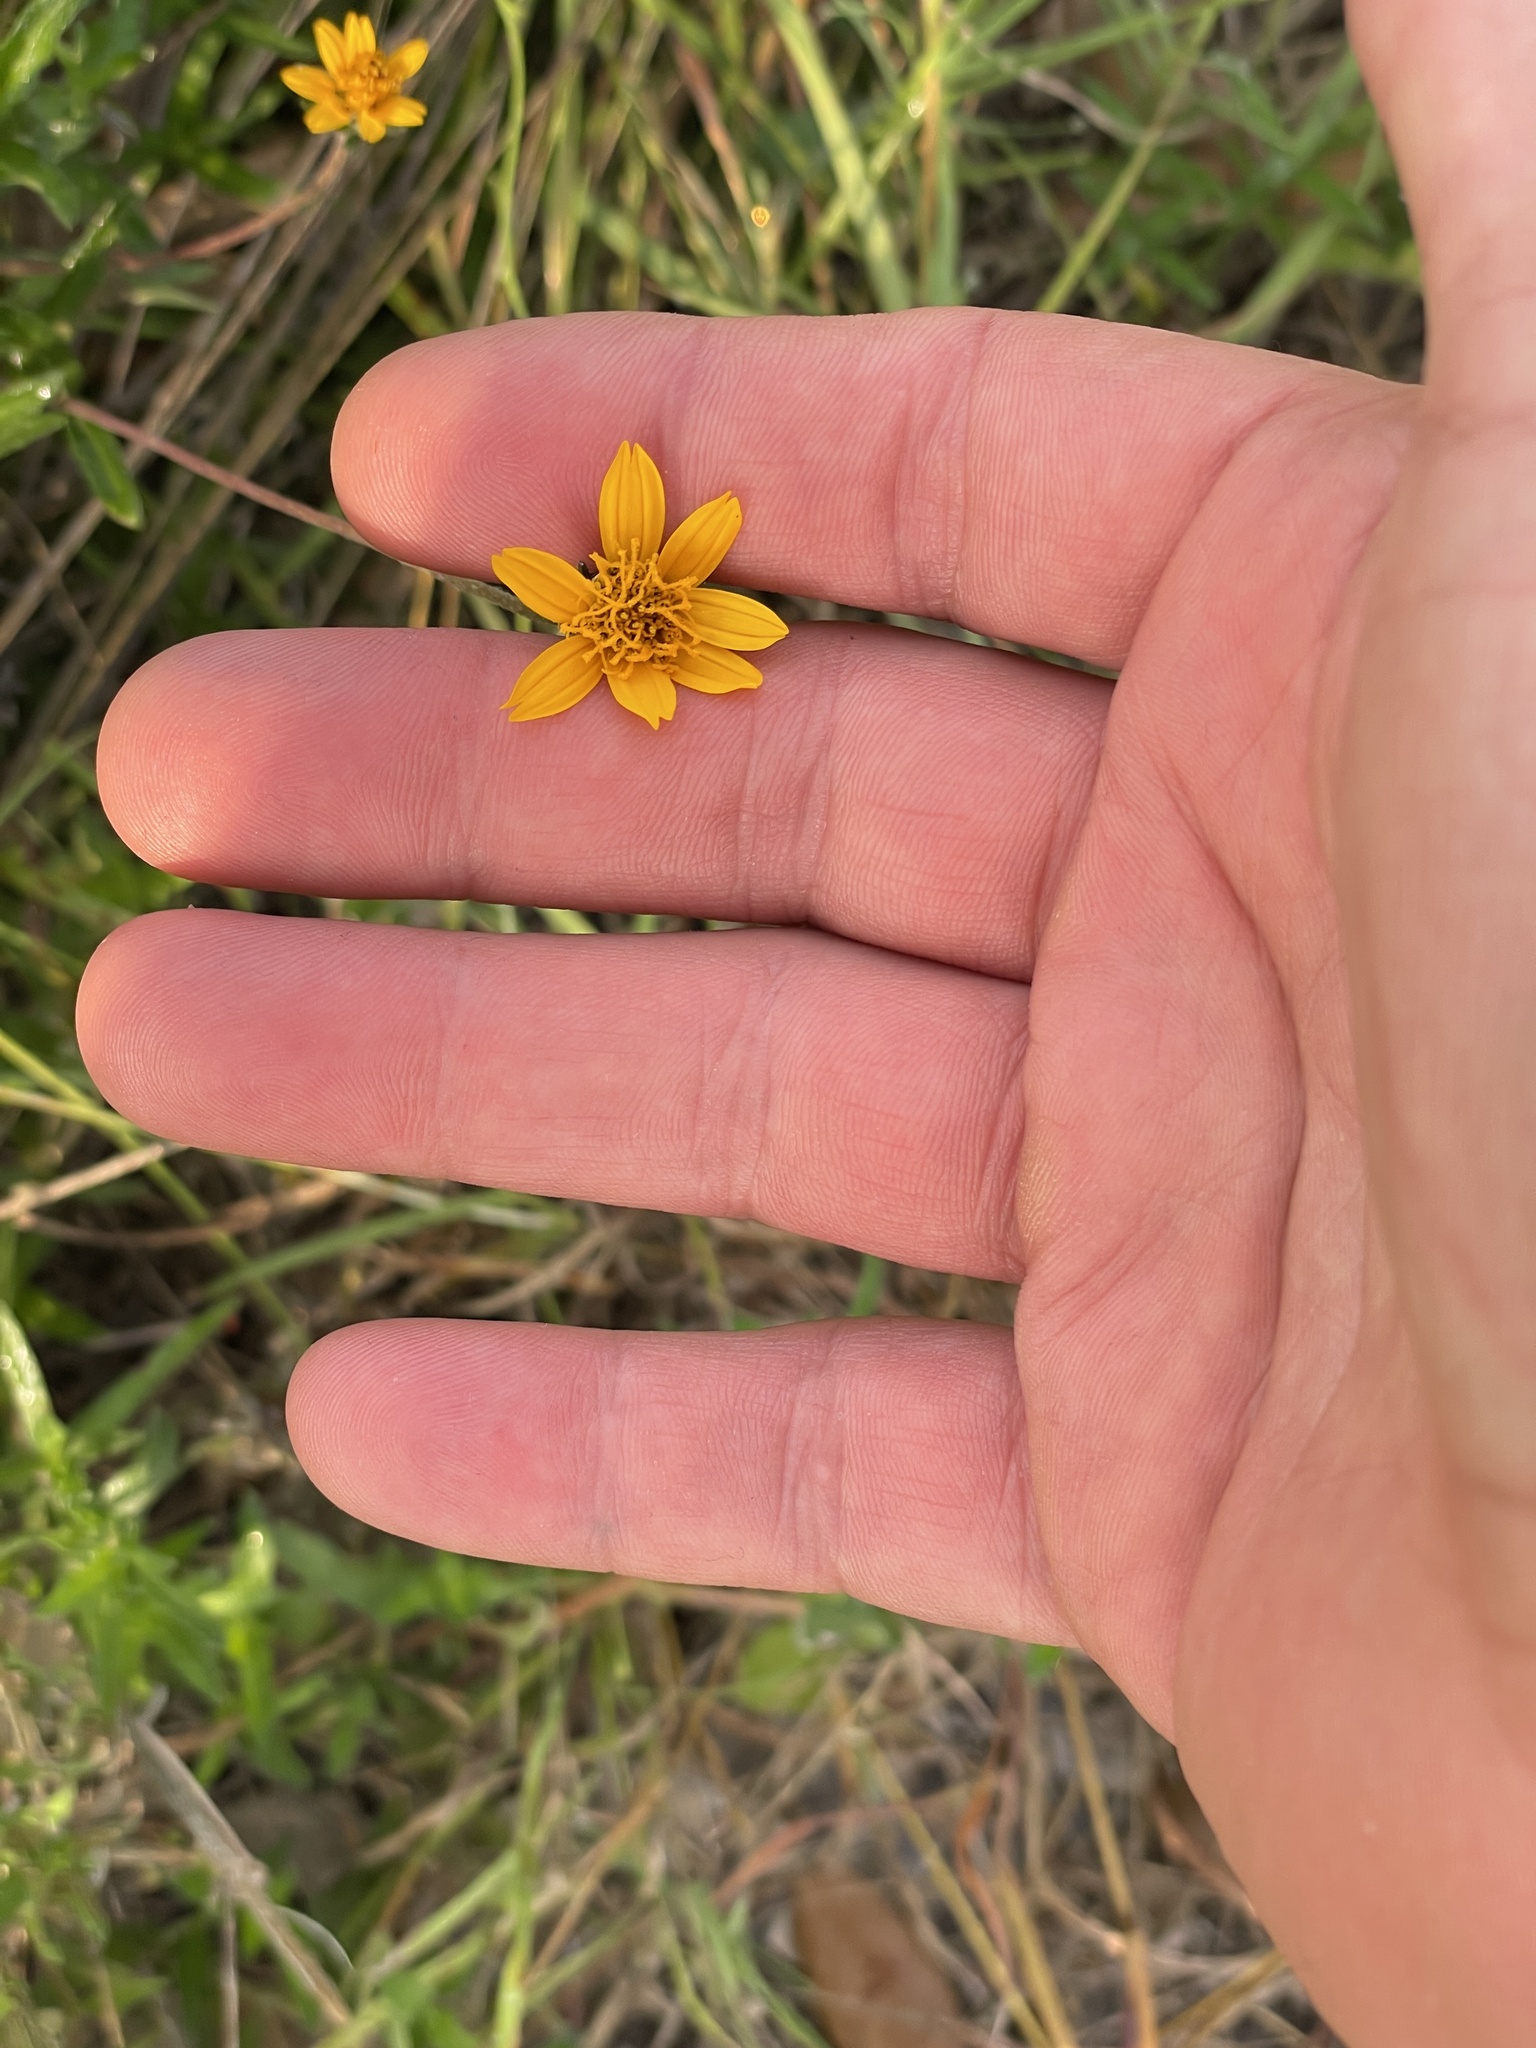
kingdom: Plantae
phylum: Tracheophyta
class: Magnoliopsida
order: Asterales
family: Asteraceae
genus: Wedelia
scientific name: Wedelia acapulcensis
